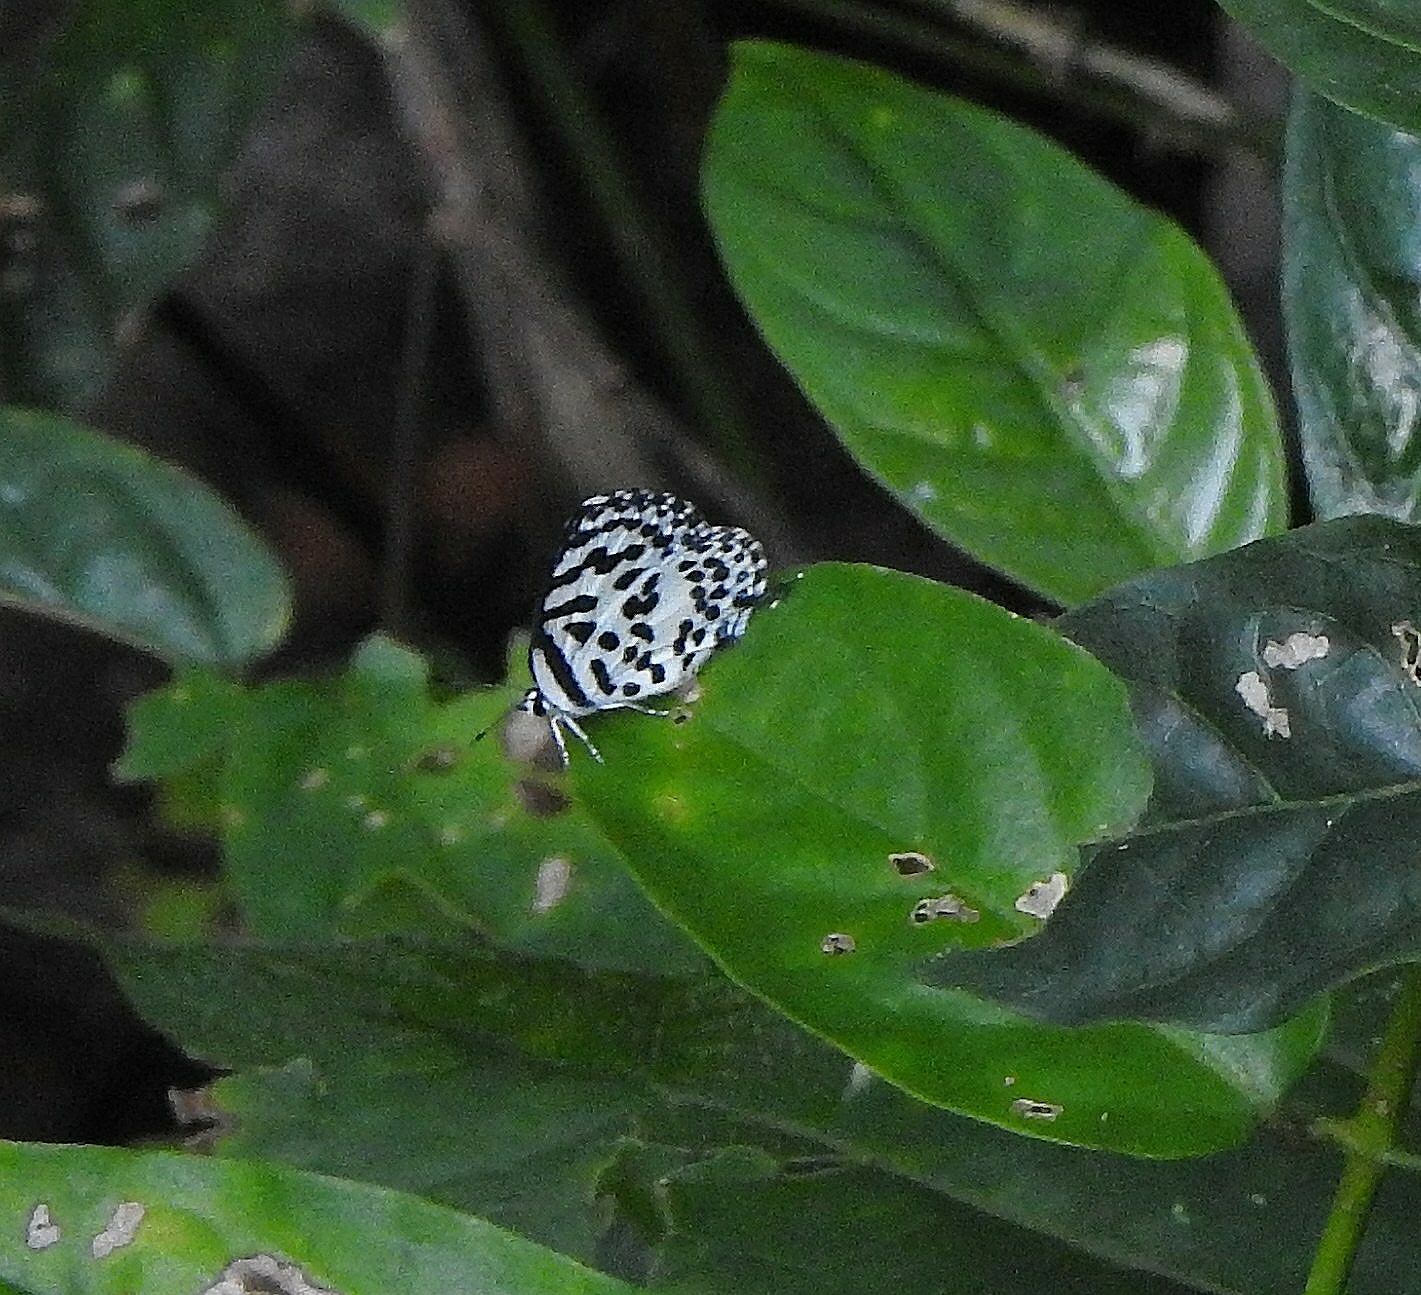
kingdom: Animalia
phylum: Arthropoda
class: Insecta
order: Lepidoptera
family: Lycaenidae
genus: Castalius
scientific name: Castalius rosimon
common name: Common pierrot
